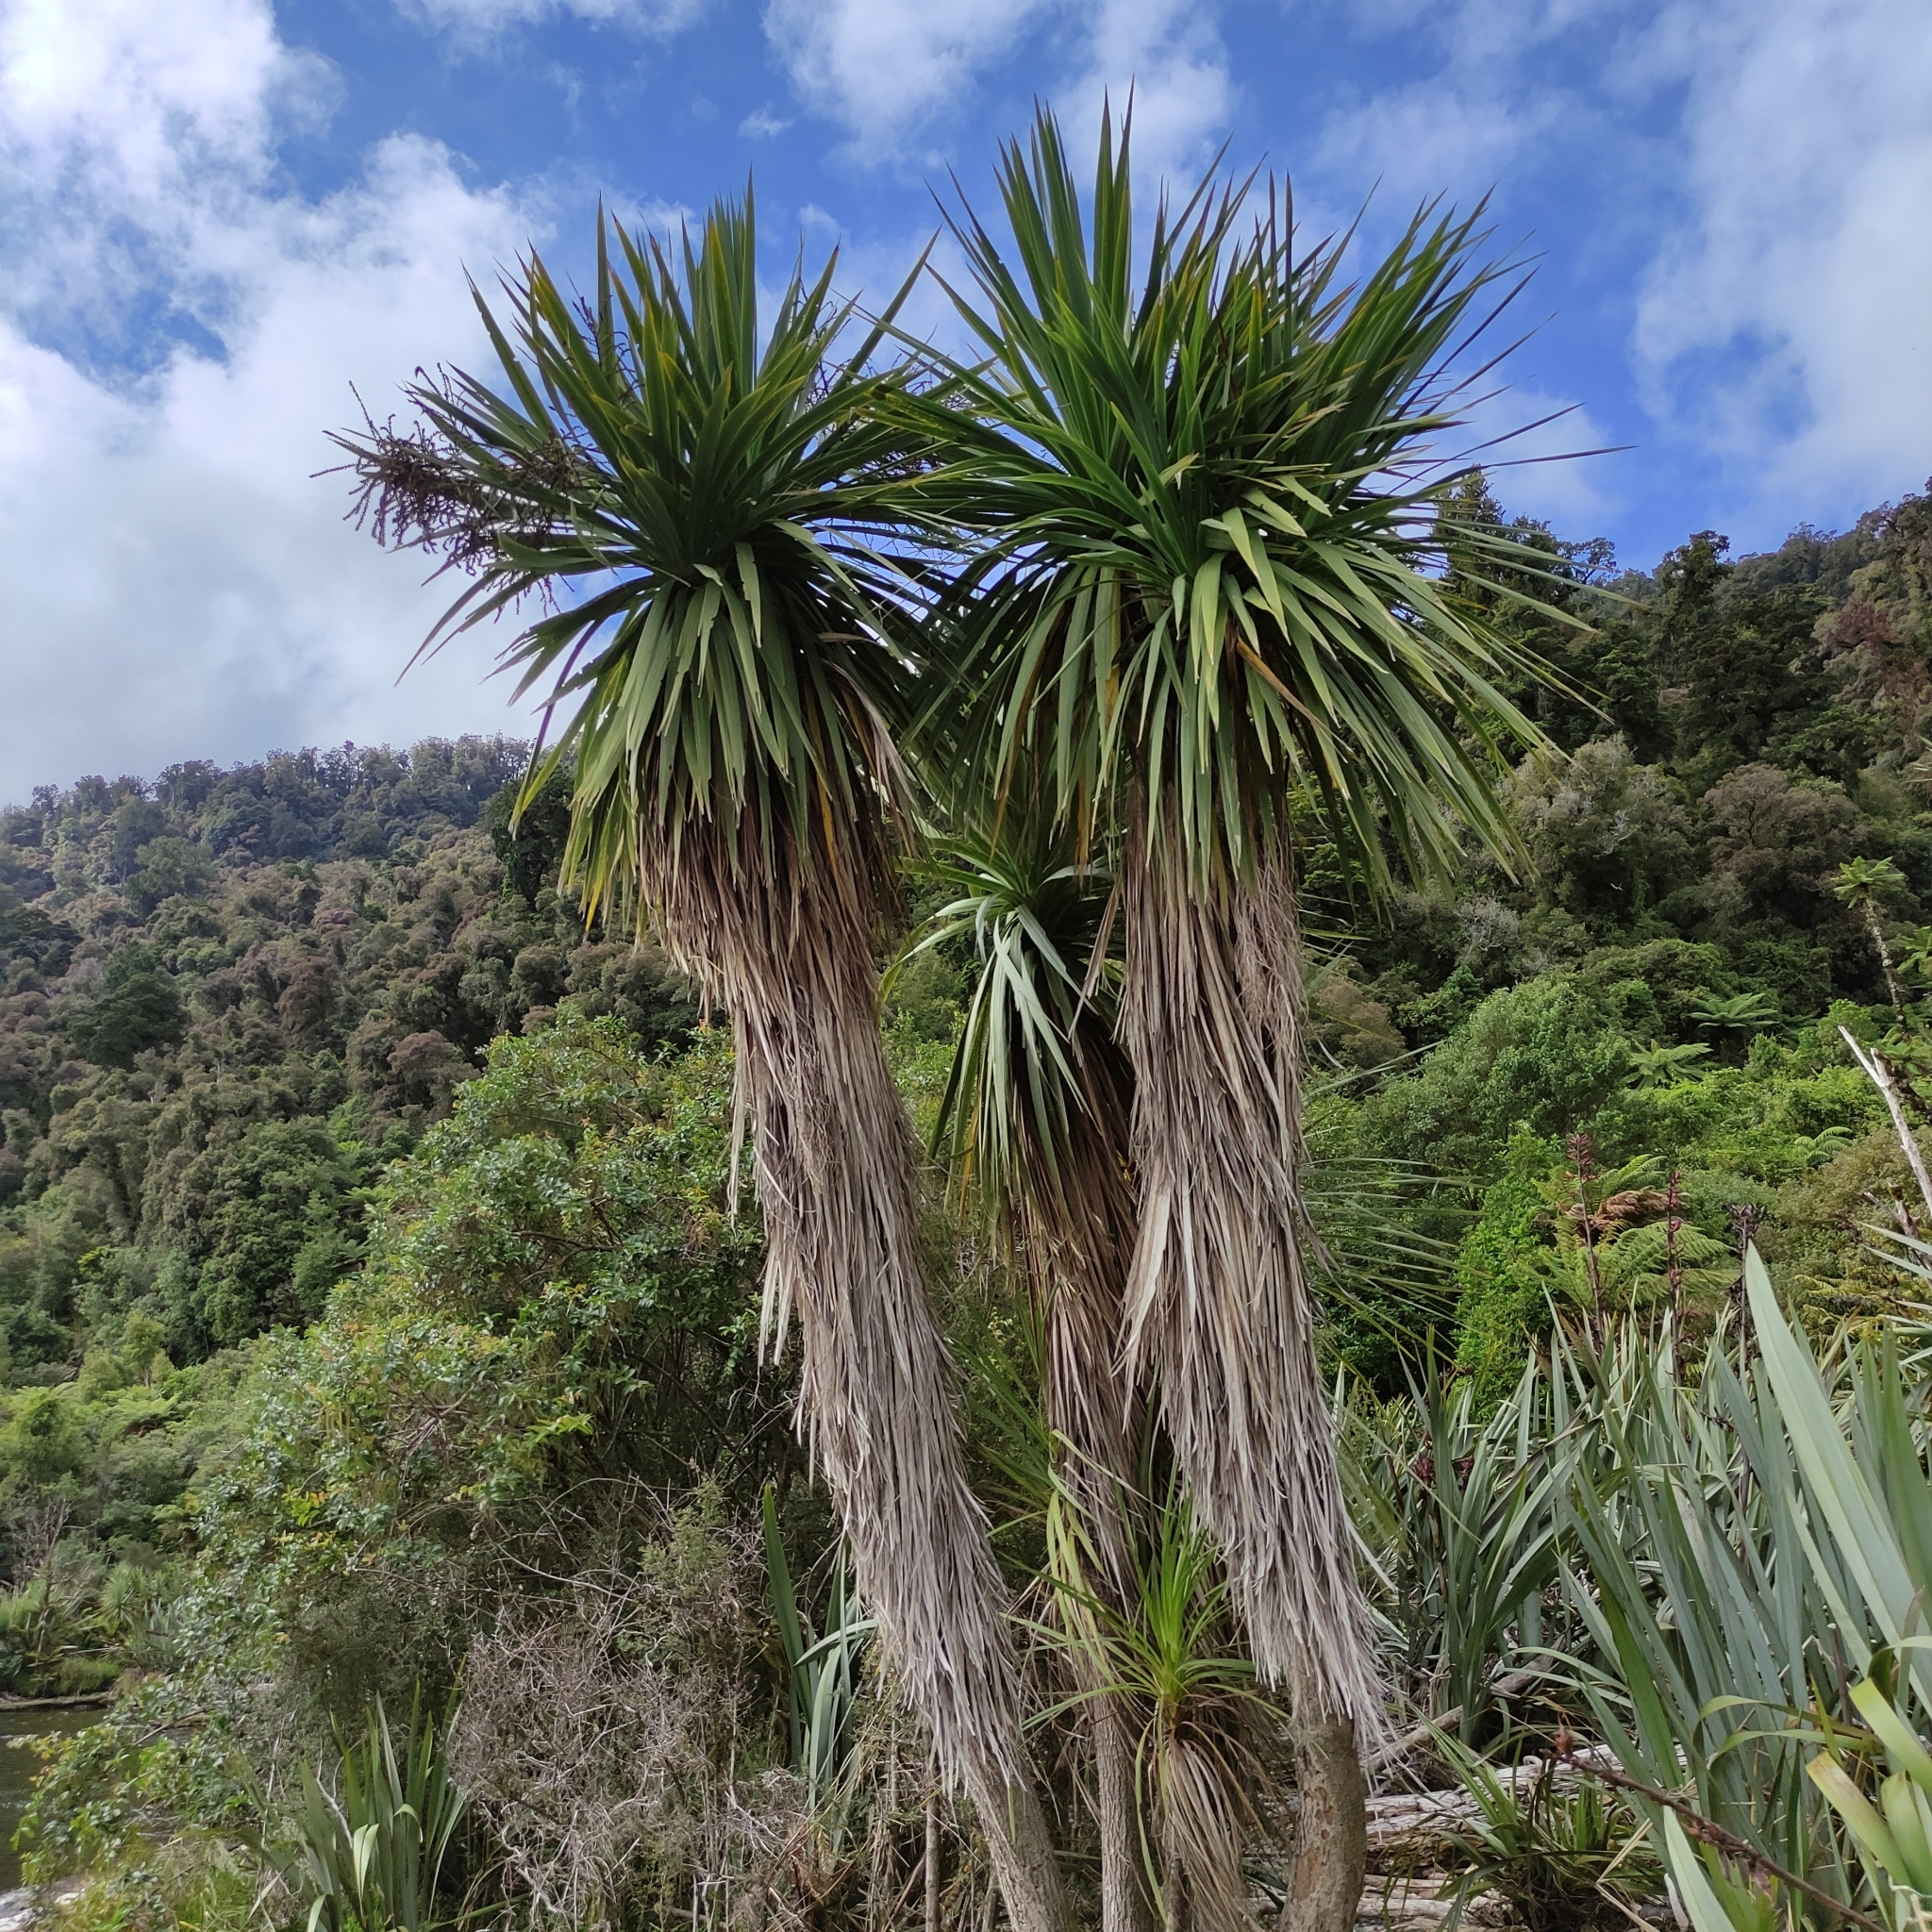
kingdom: Plantae
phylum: Tracheophyta
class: Liliopsida
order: Asparagales
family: Asparagaceae
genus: Cordyline
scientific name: Cordyline australis
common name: Cabbage-palm
